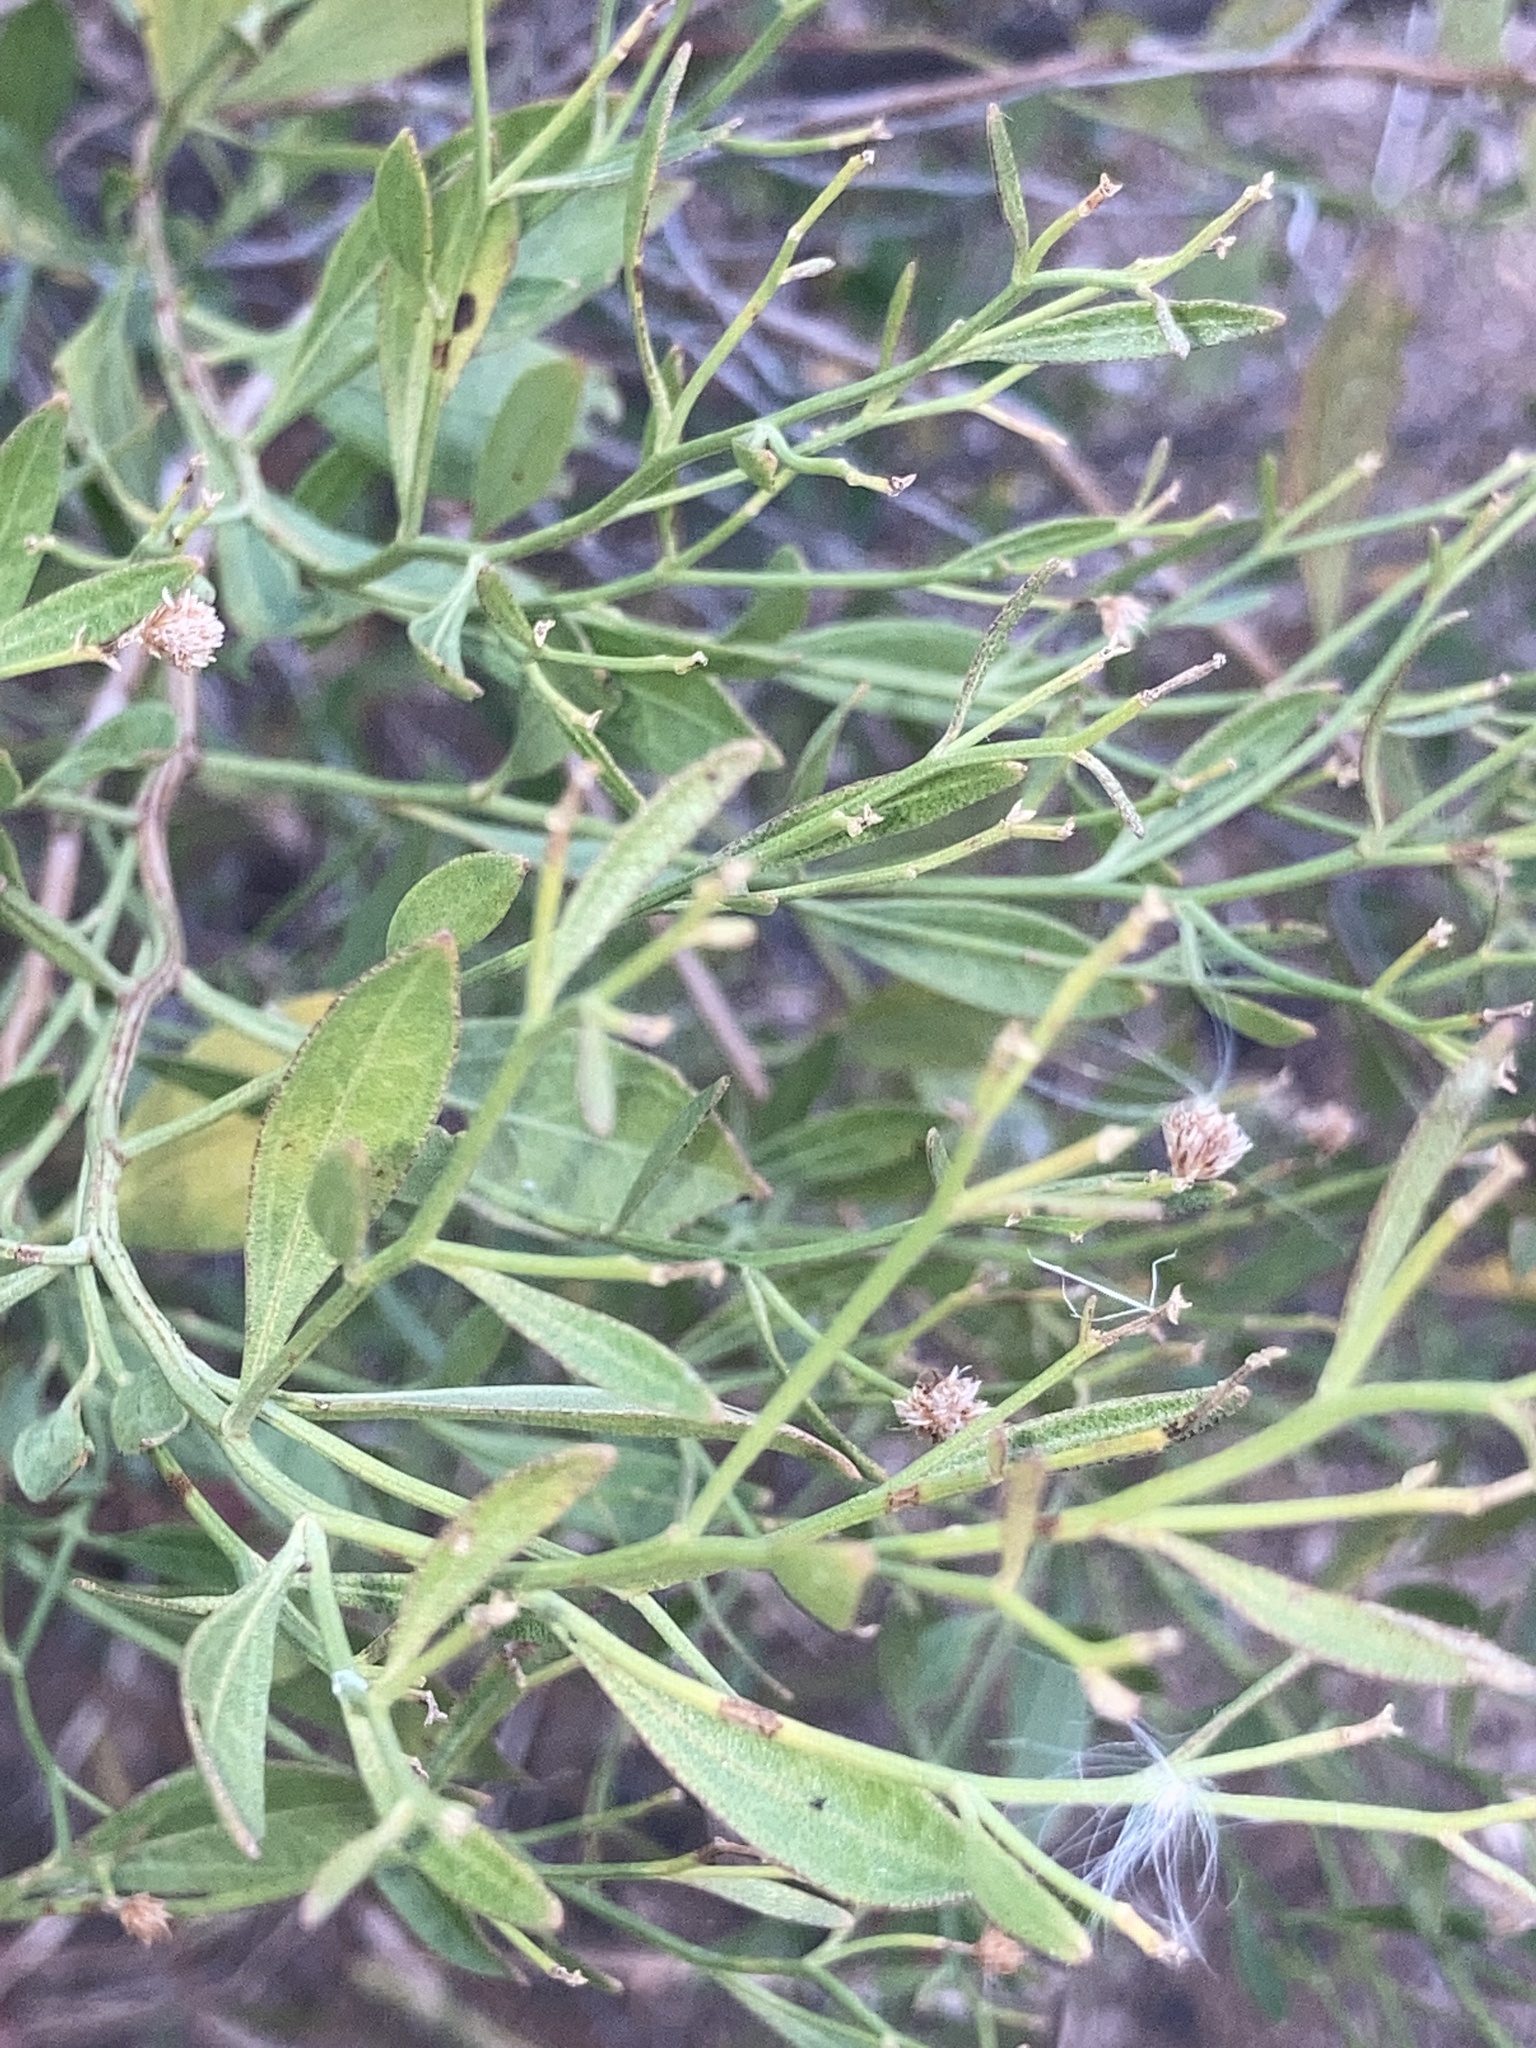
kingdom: Plantae
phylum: Tracheophyta
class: Magnoliopsida
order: Asterales
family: Asteraceae
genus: Baccharis
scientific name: Baccharis halimifolia
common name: Eastern baccharis
